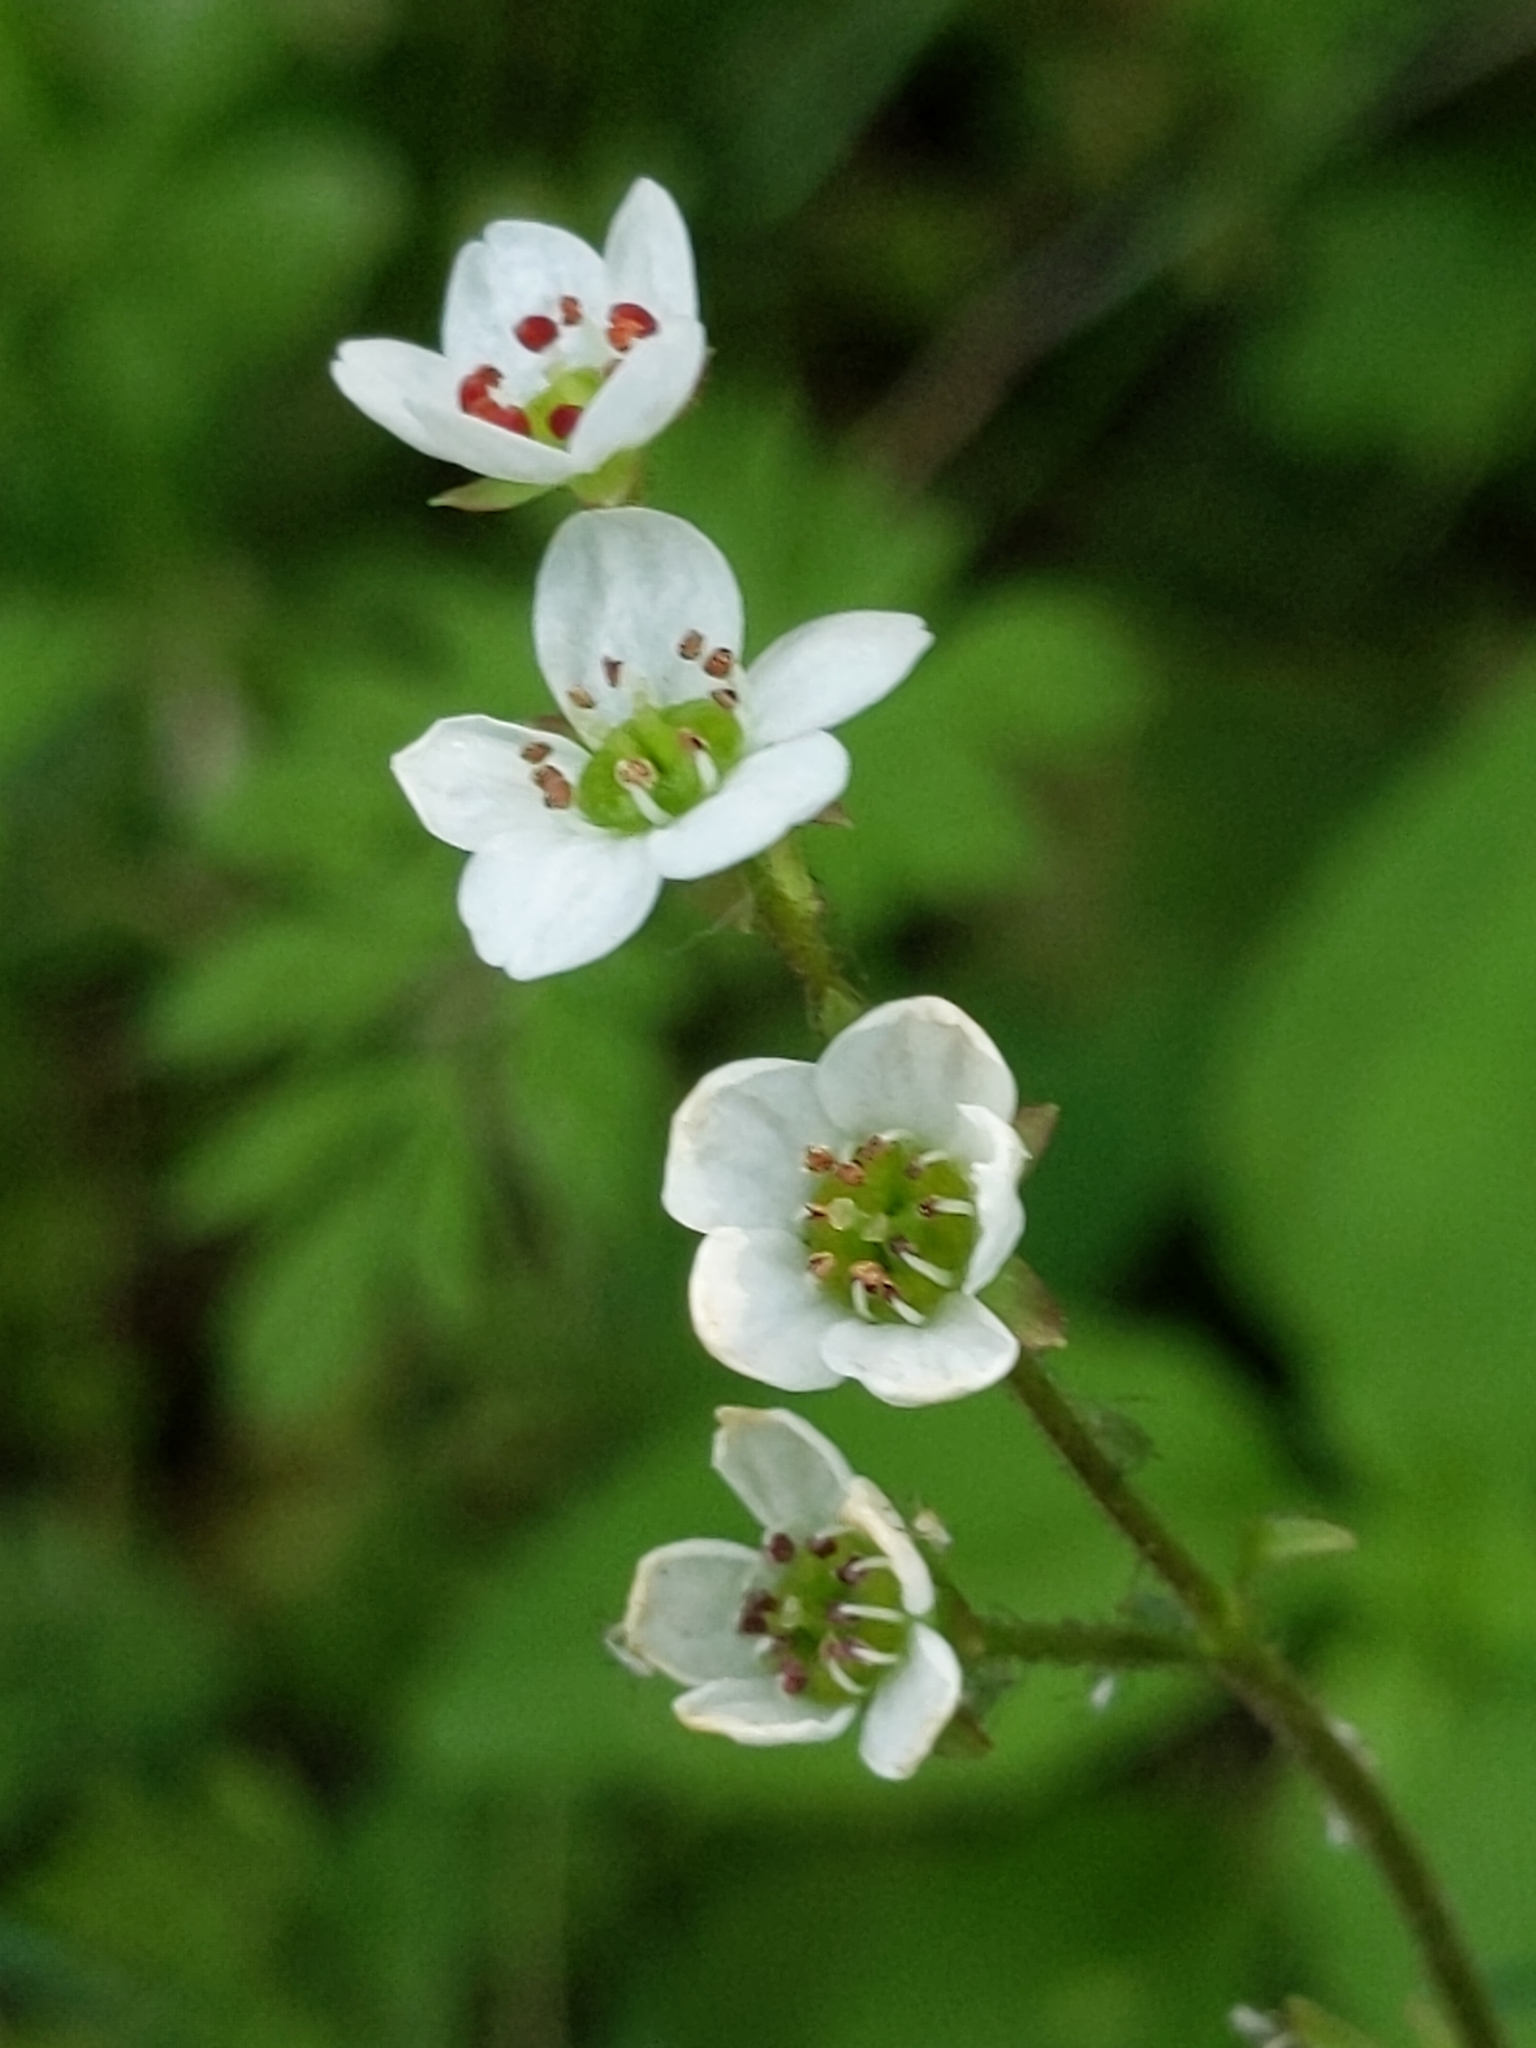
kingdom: Plantae
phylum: Tracheophyta
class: Magnoliopsida
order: Saxifragales
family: Saxifragaceae
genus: Micranthes
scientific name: Micranthes californica
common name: California saxifrage
